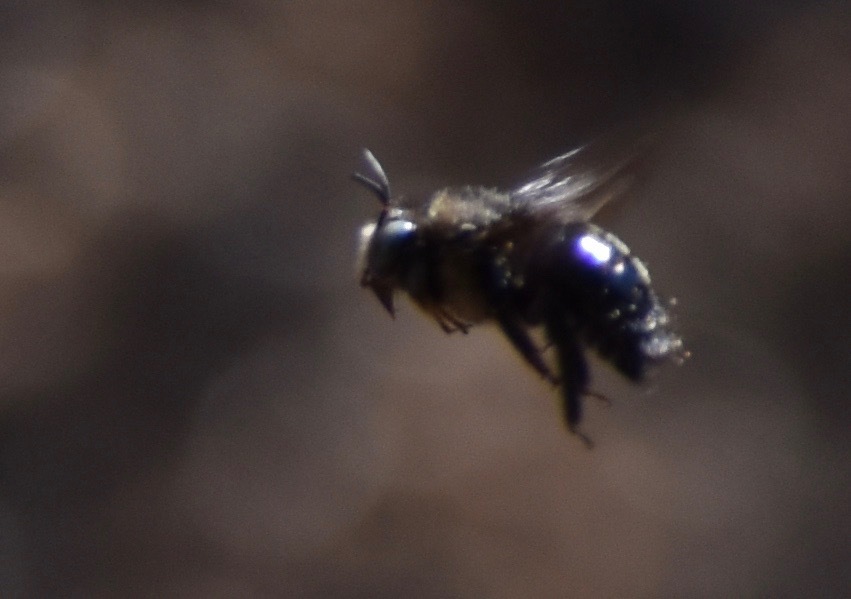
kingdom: Animalia
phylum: Arthropoda
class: Insecta
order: Hymenoptera
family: Apidae
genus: Xylocopa
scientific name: Xylocopa tabaniformis
